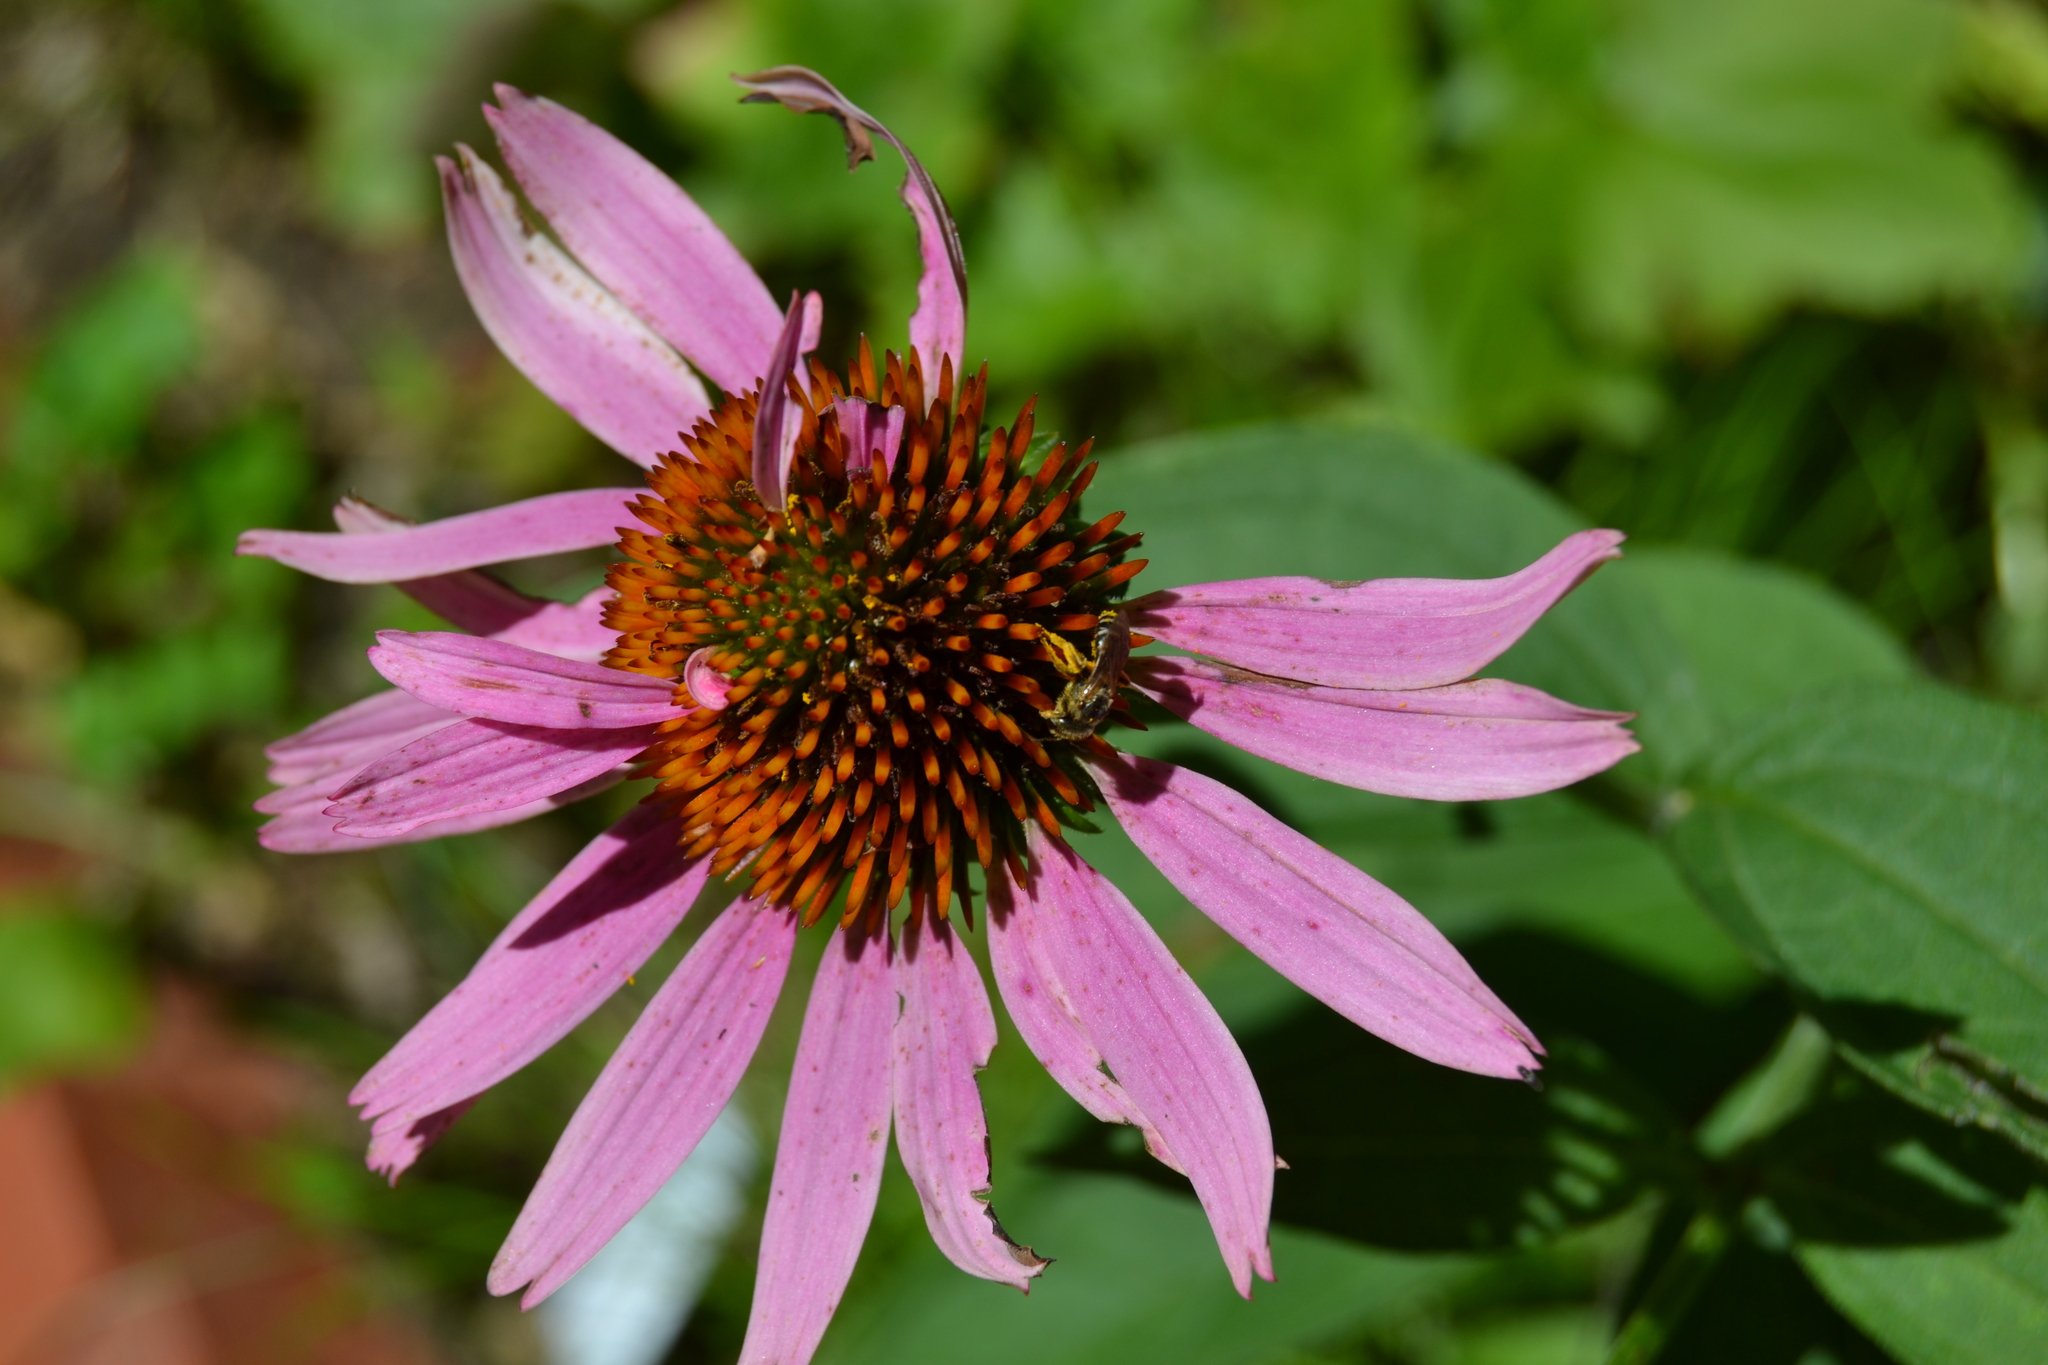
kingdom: Animalia
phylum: Arthropoda
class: Insecta
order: Hymenoptera
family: Halictidae
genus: Halictus
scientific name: Halictus ligatus
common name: Ligated furrow bee
